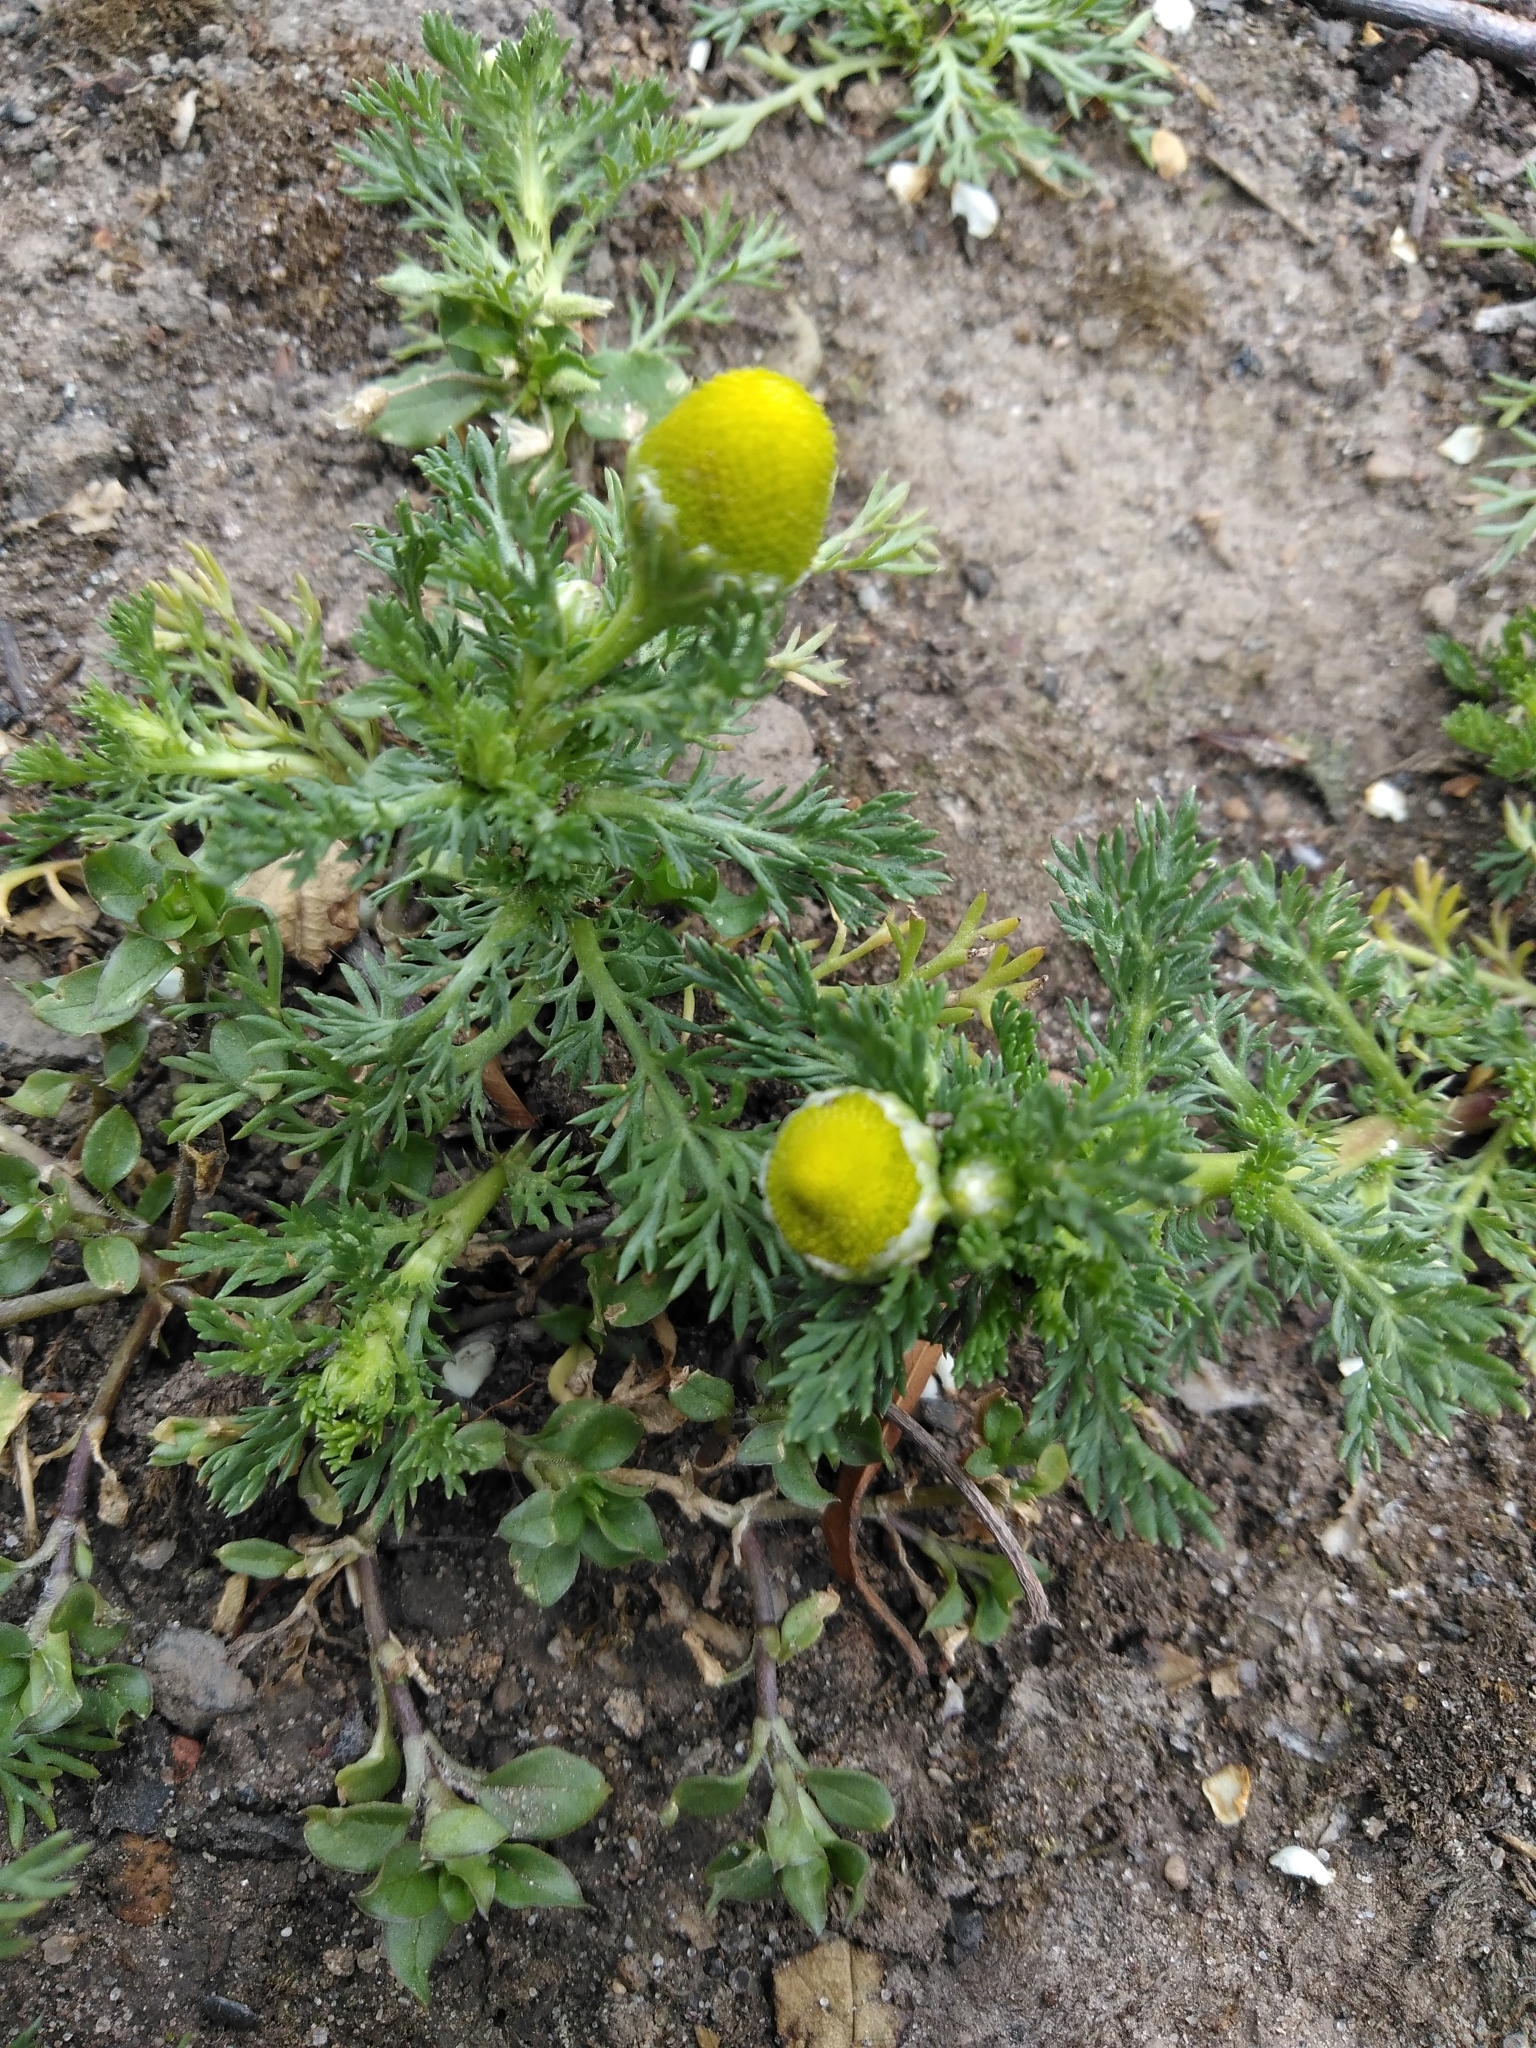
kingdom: Plantae
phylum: Tracheophyta
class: Magnoliopsida
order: Asterales
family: Asteraceae
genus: Matricaria
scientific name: Matricaria discoidea
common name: Disc mayweed
